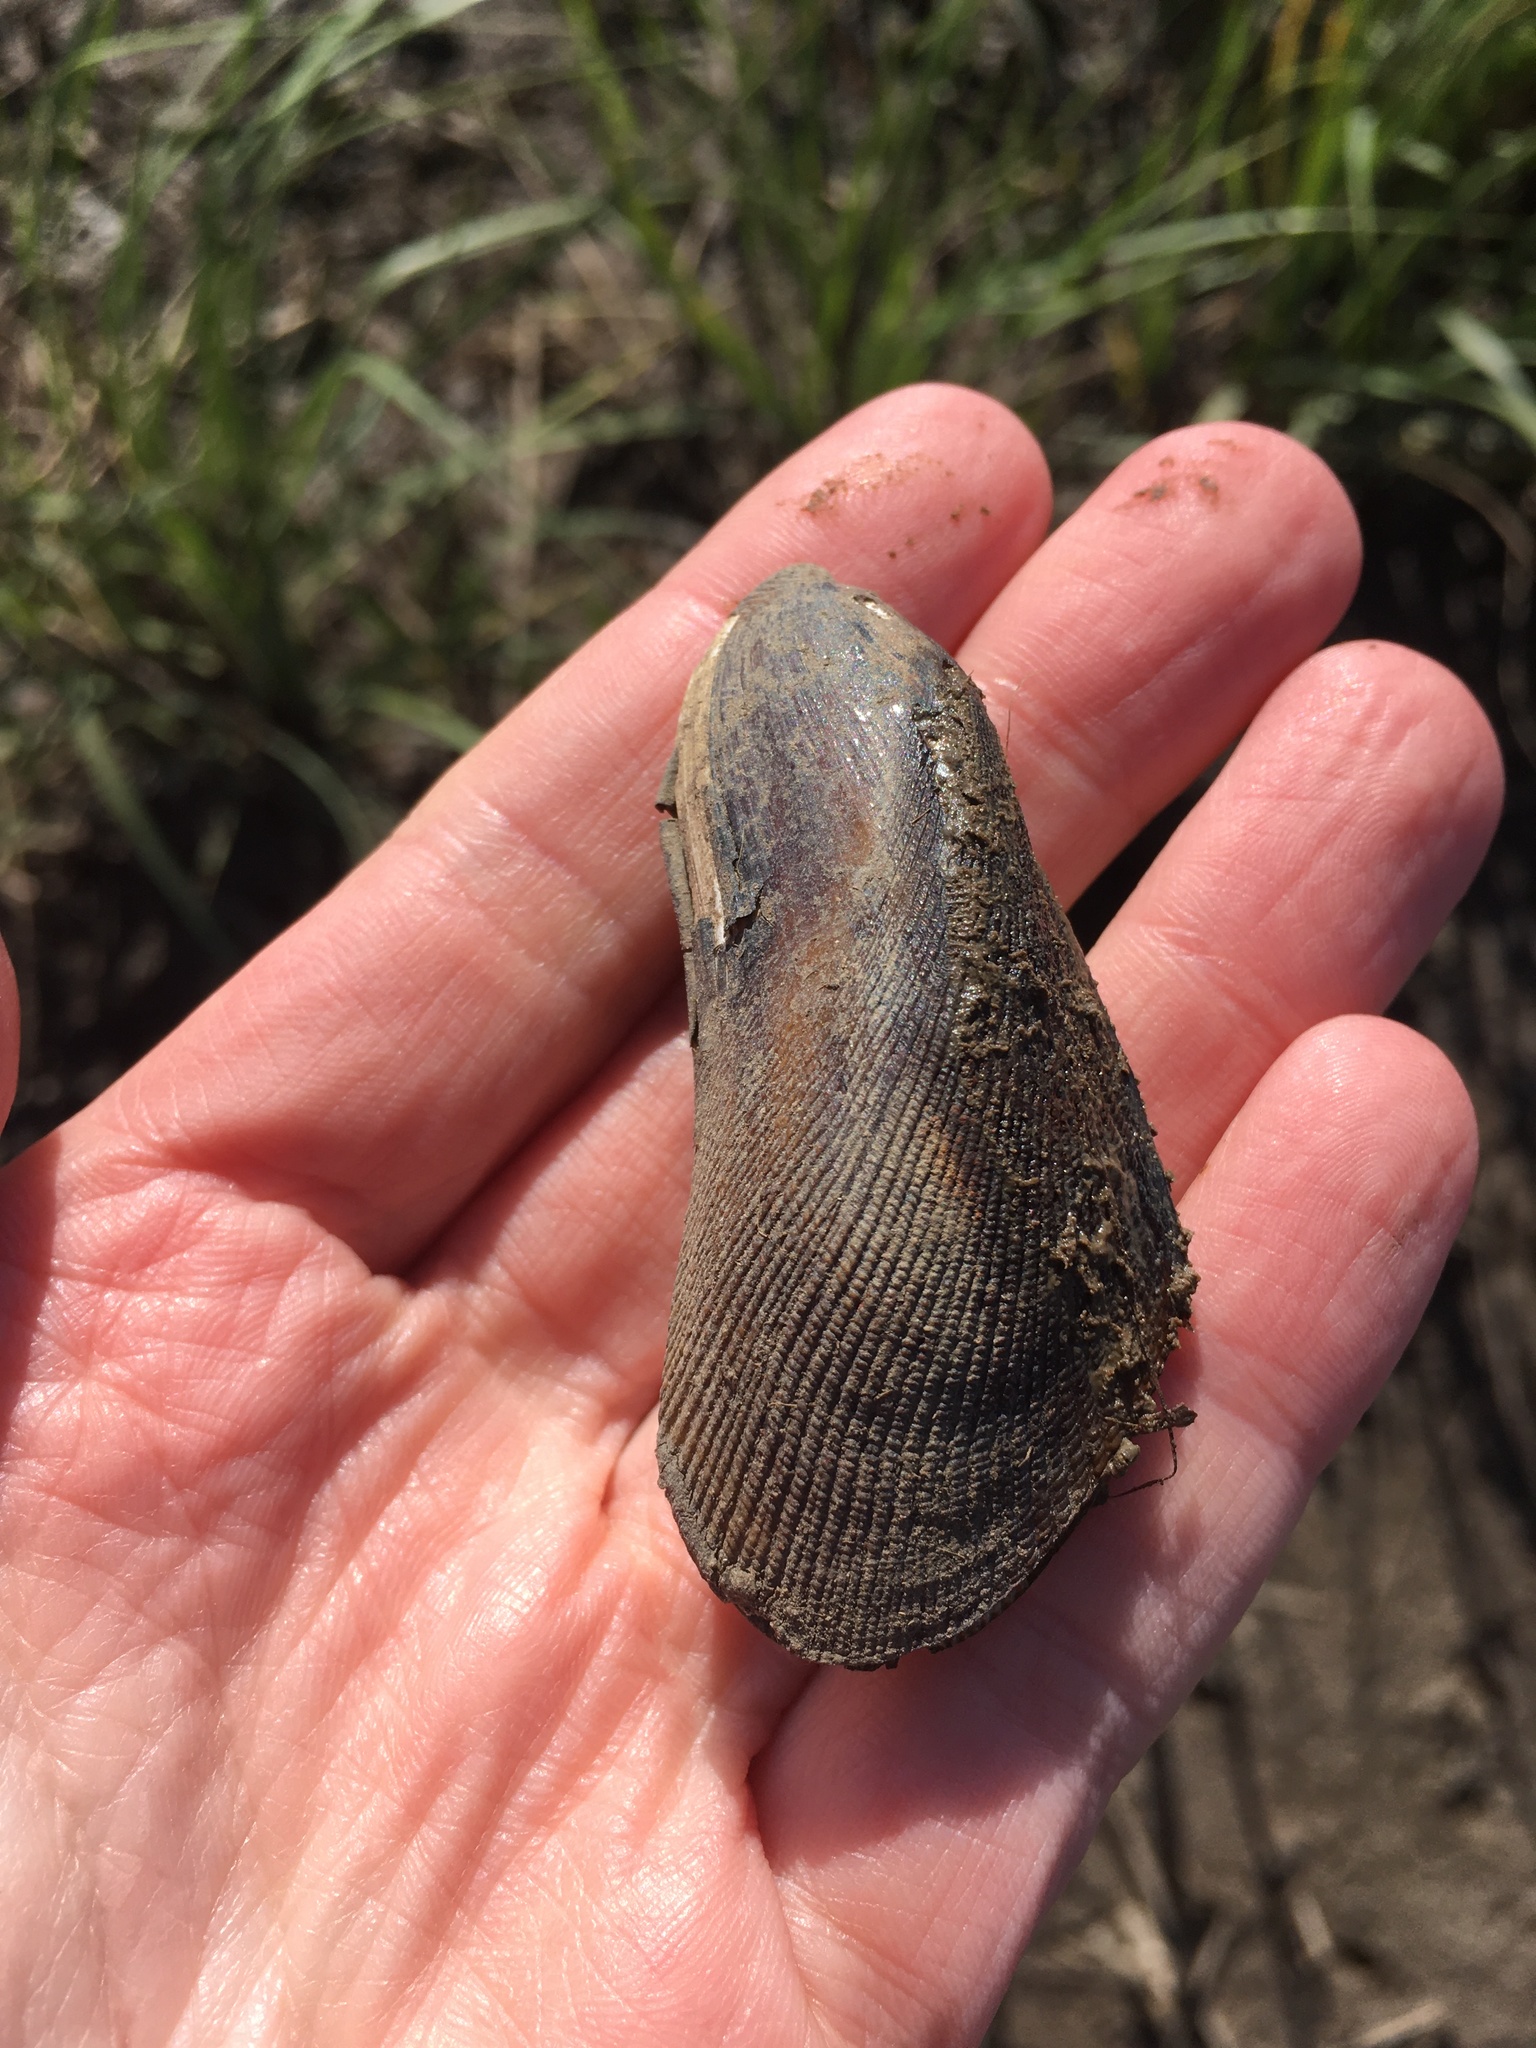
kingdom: Animalia
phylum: Mollusca
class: Bivalvia
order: Mytilida
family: Mytilidae
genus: Geukensia
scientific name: Geukensia granosissima
